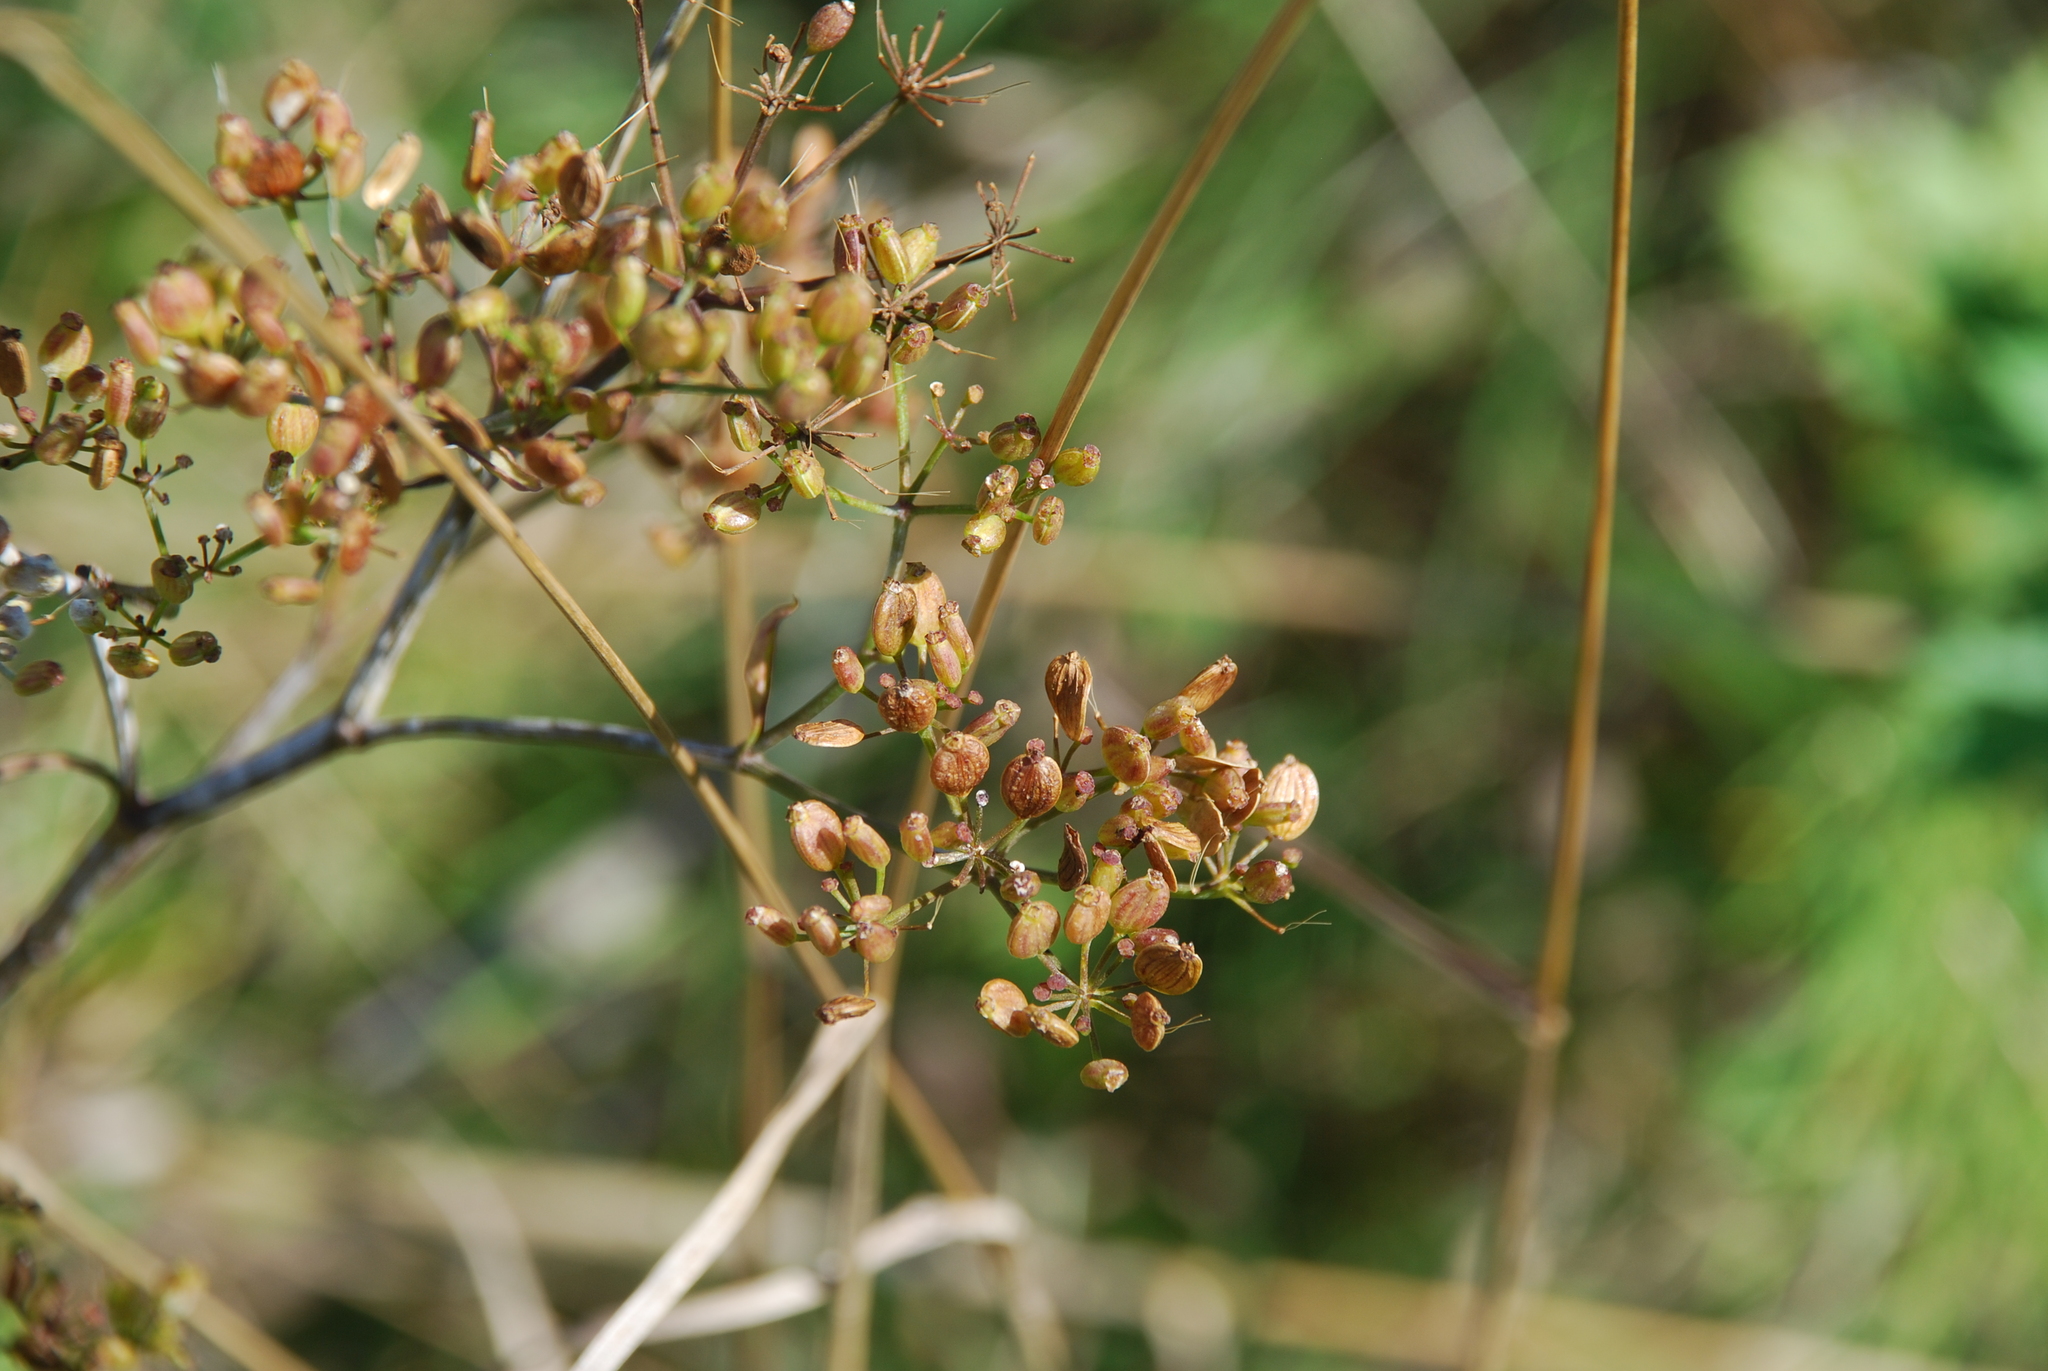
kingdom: Plantae
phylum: Tracheophyta
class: Magnoliopsida
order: Apiales
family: Apiaceae
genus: Heracleum
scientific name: Heracleum sphondylium
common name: Hogweed
